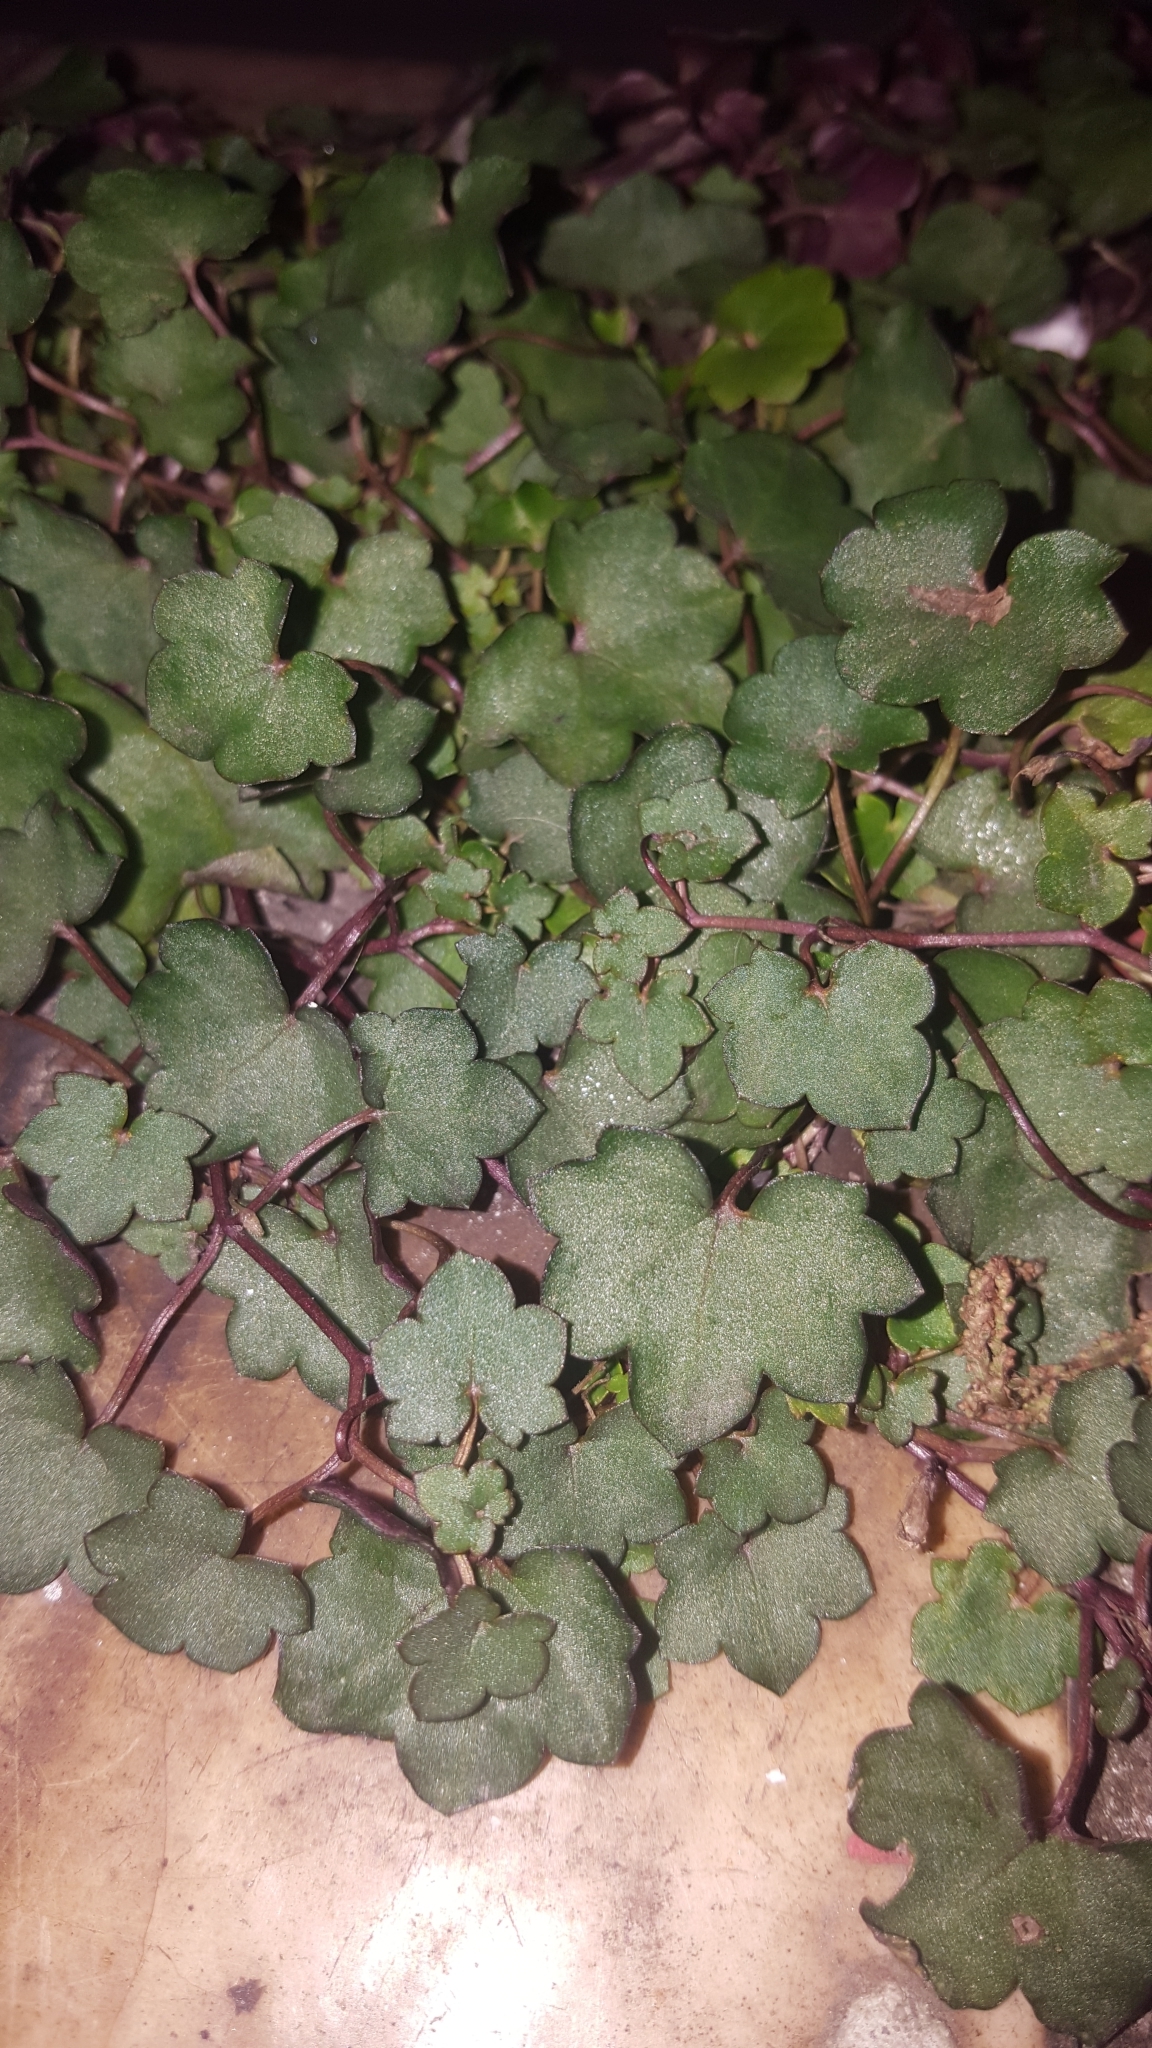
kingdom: Plantae
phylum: Tracheophyta
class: Magnoliopsida
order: Lamiales
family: Plantaginaceae
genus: Cymbalaria
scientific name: Cymbalaria muralis
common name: Ivy-leaved toadflax
